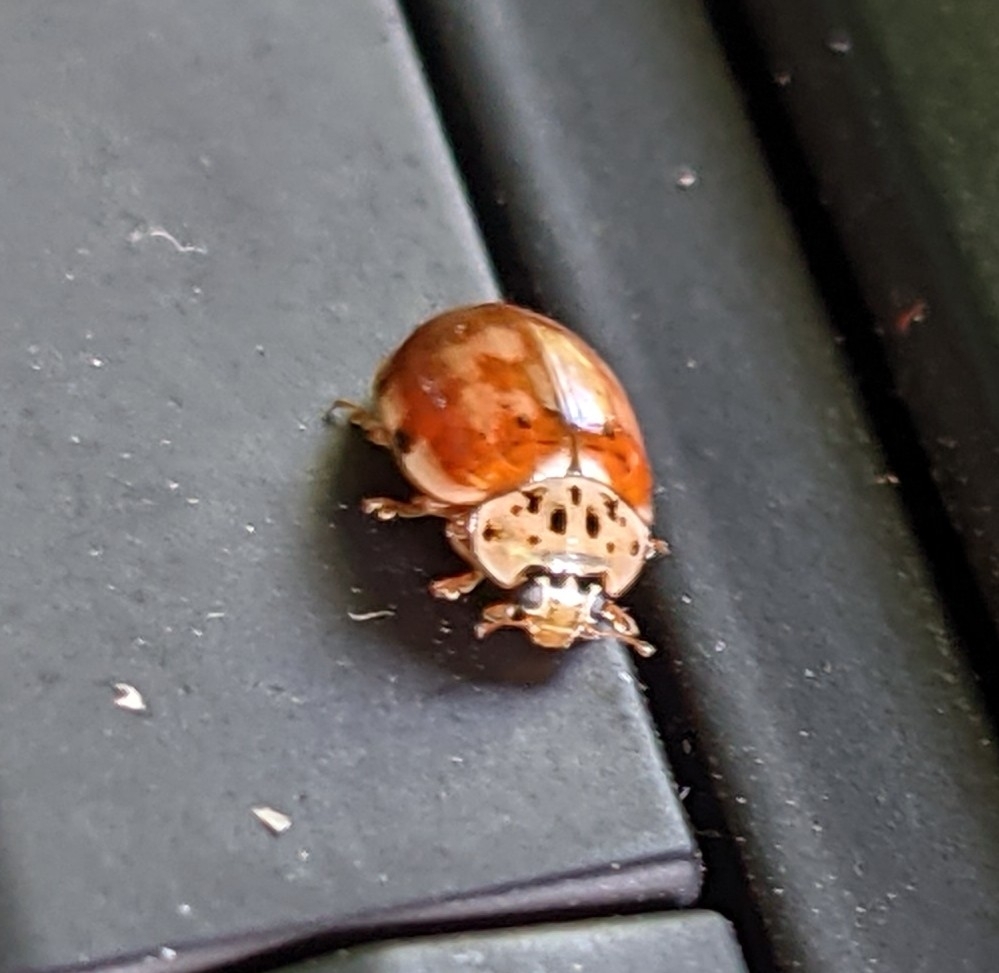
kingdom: Animalia
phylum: Arthropoda
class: Insecta
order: Coleoptera
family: Coccinellidae
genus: Harmonia
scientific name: Harmonia quadripunctata
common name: Cream-streaked ladybird
